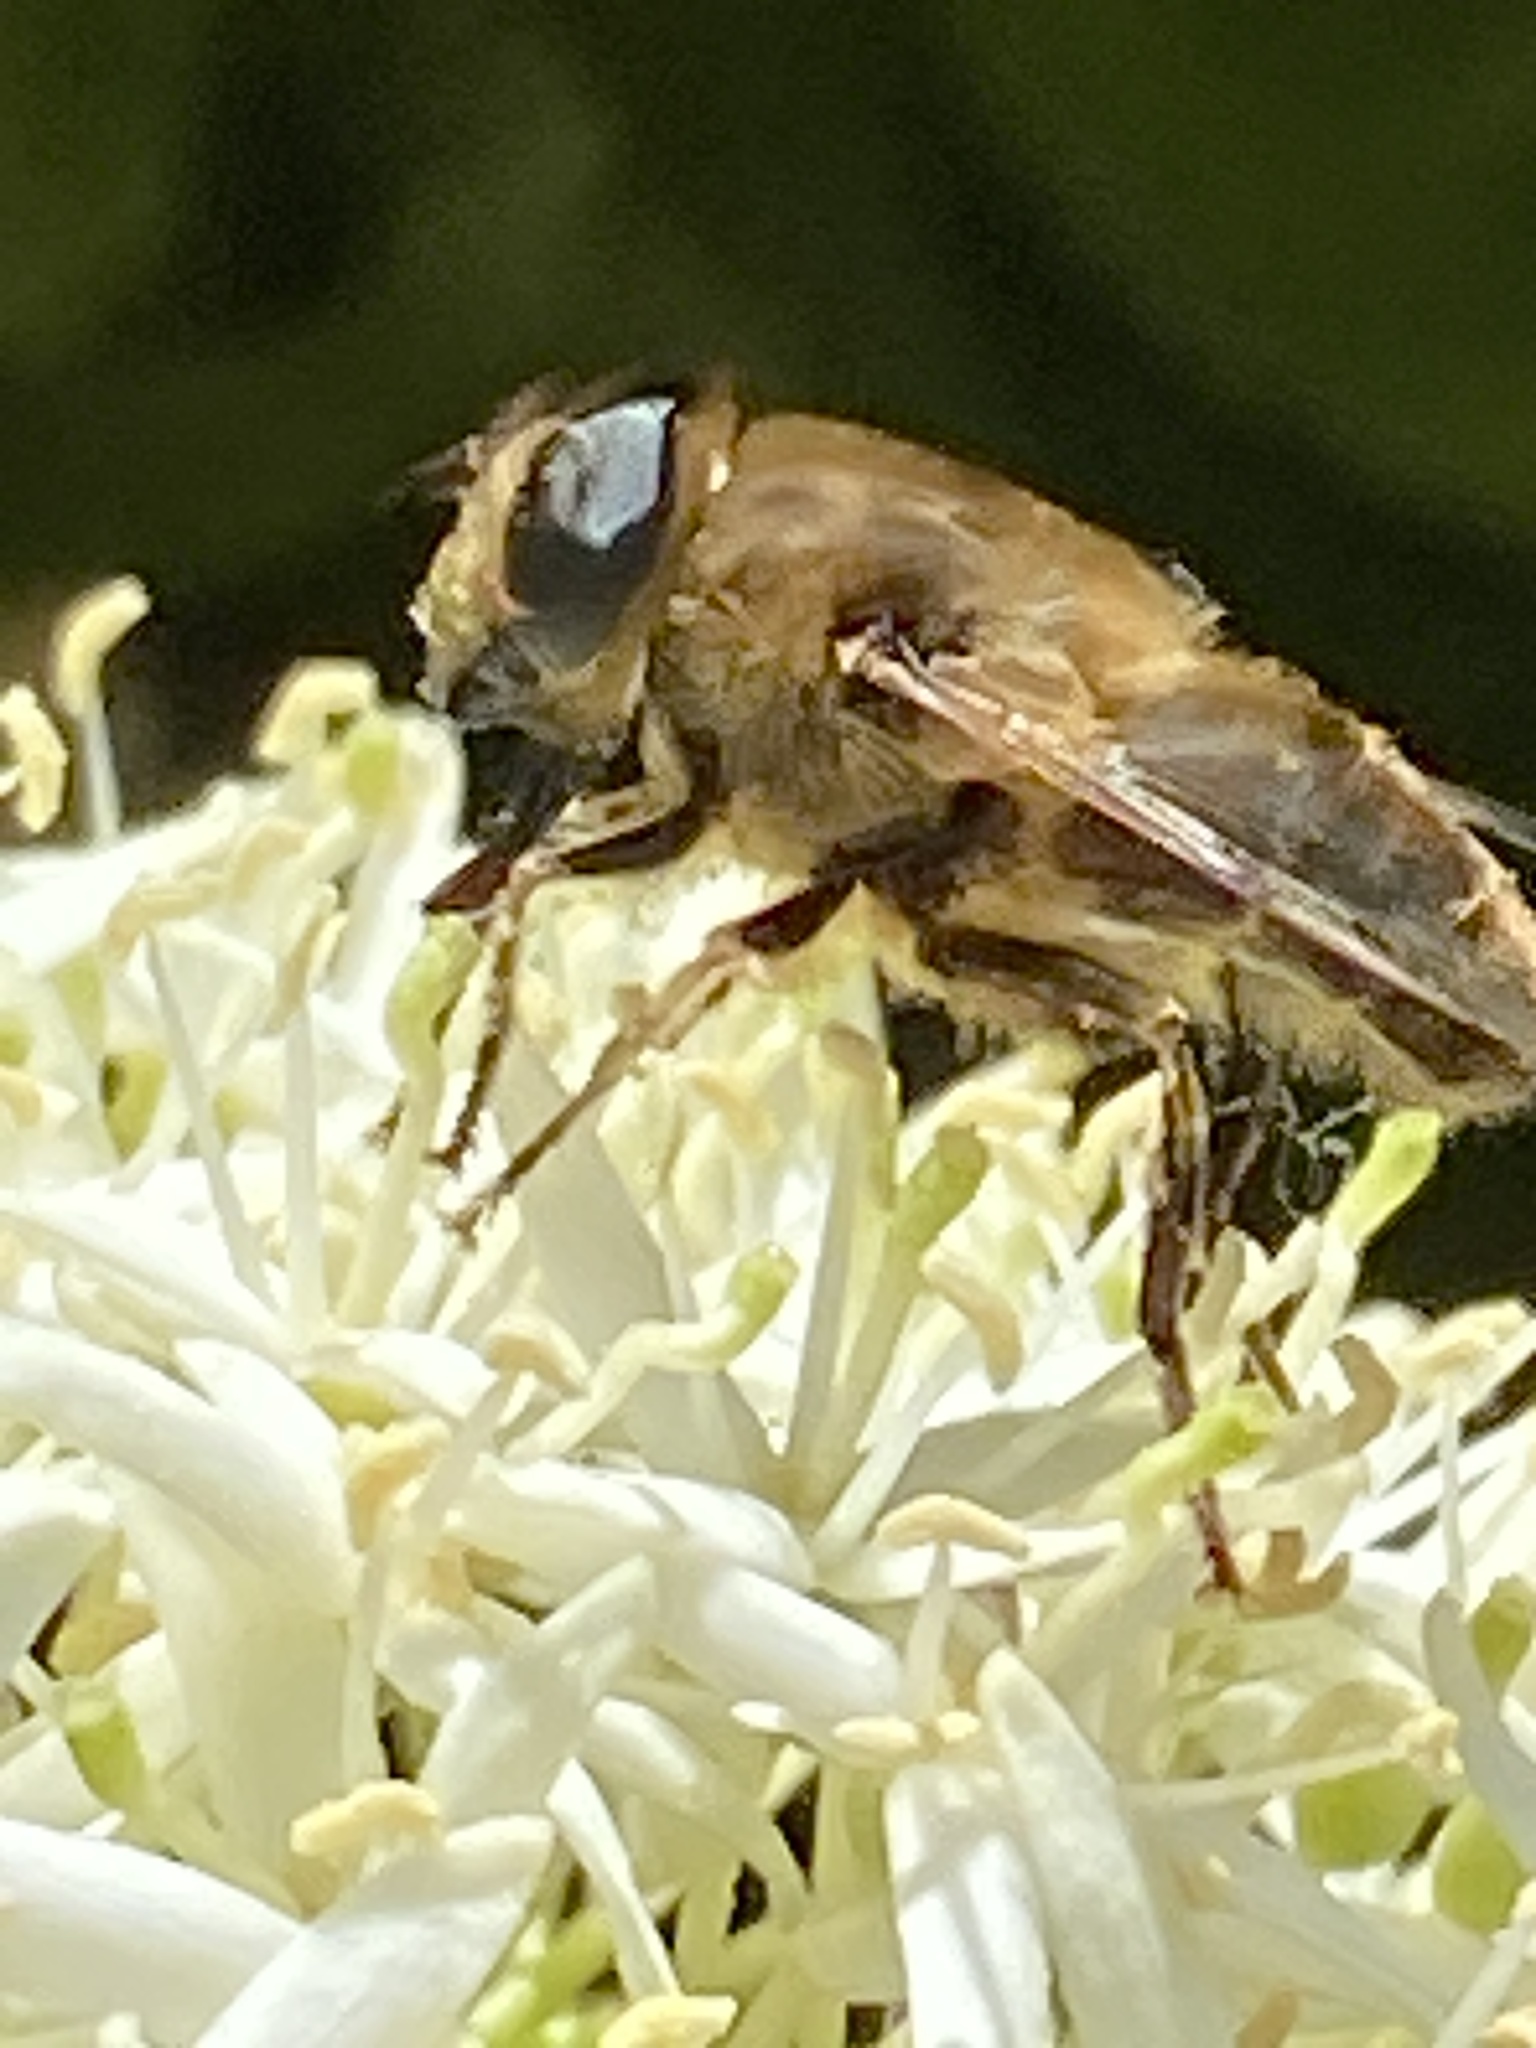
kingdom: Animalia
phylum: Arthropoda
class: Insecta
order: Diptera
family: Syrphidae
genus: Eristalis
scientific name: Eristalis tenax
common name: Drone fly
